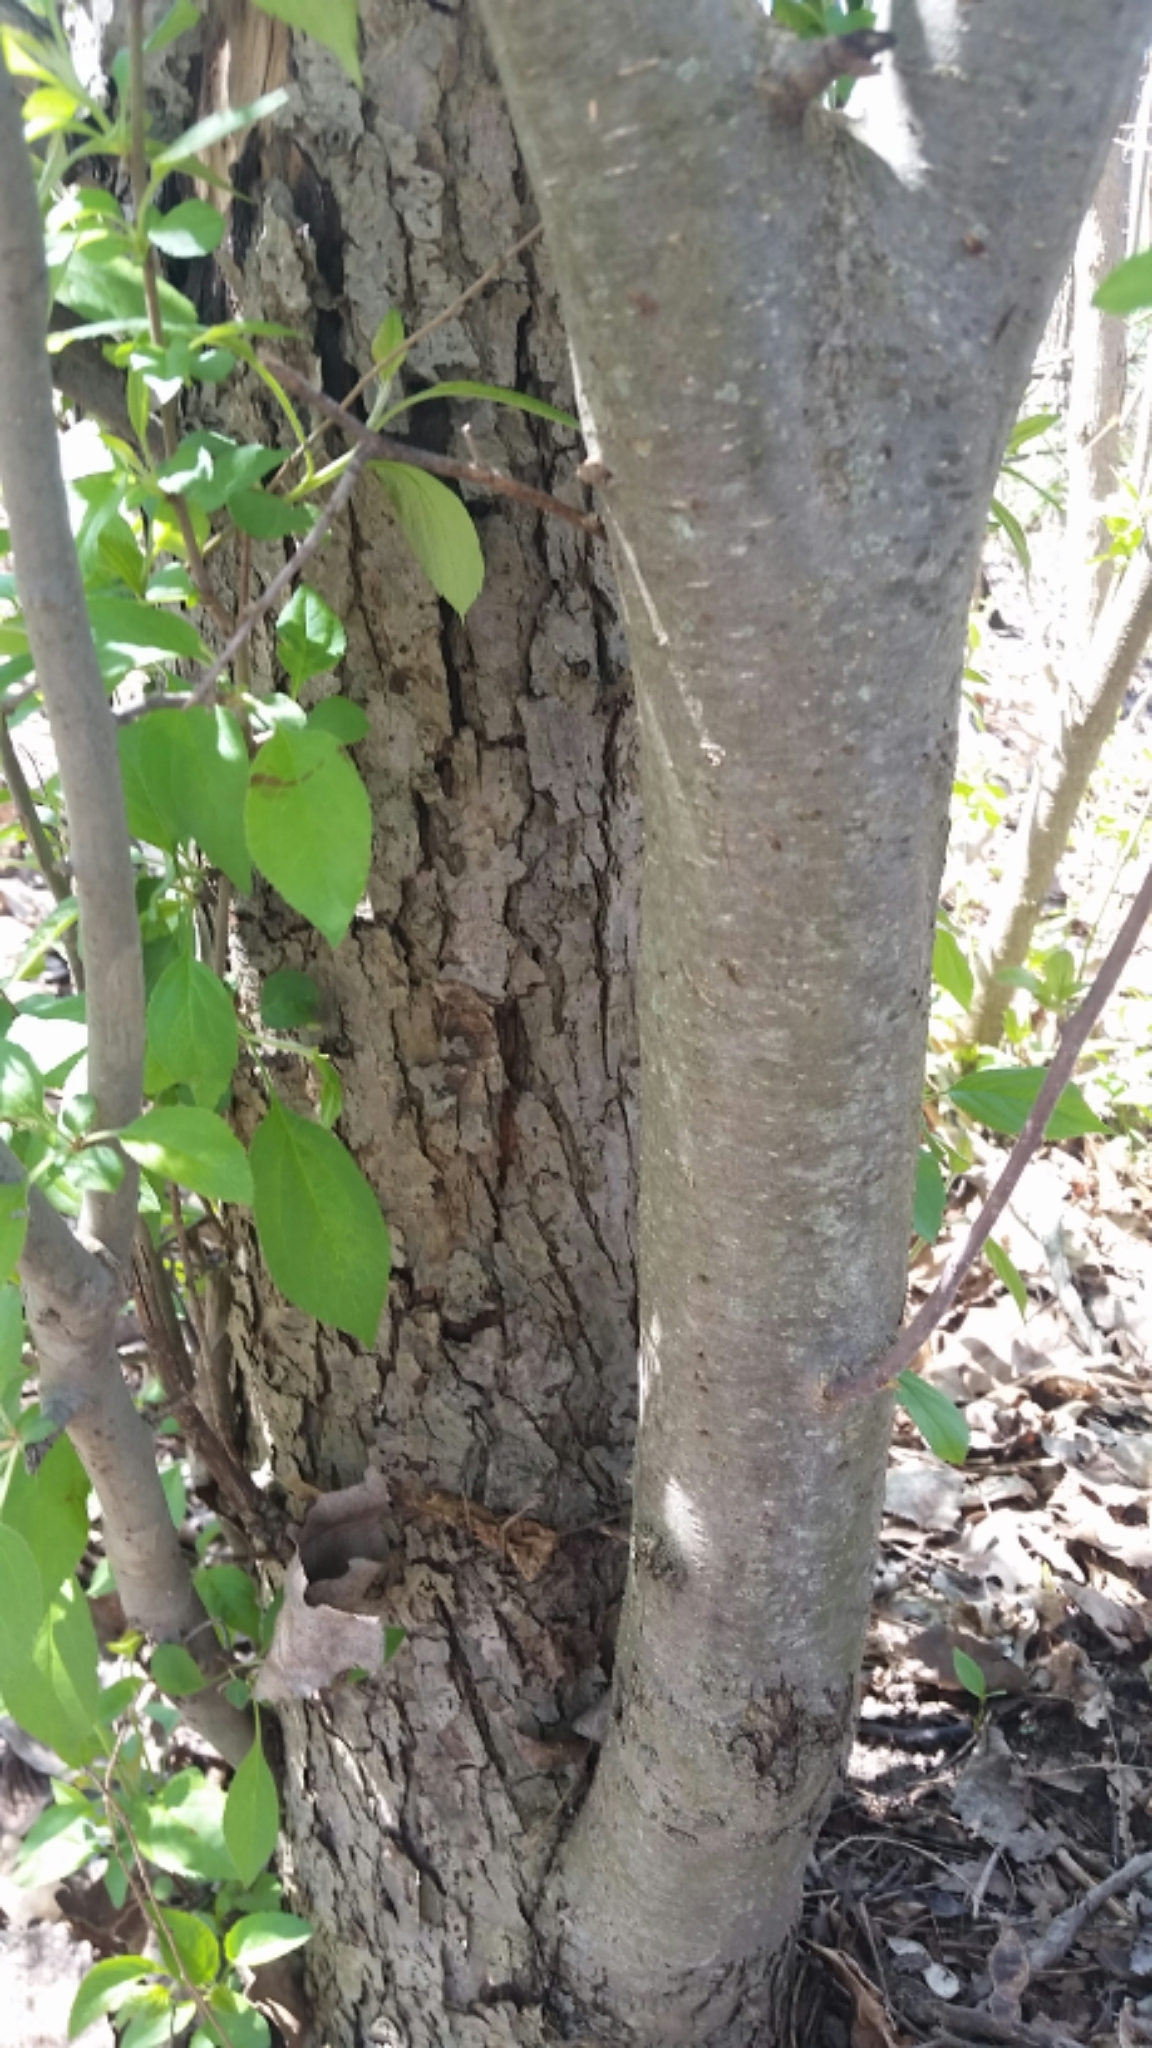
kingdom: Plantae
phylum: Tracheophyta
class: Magnoliopsida
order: Rosales
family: Rosaceae
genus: Malus
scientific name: Malus domestica
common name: Apple
